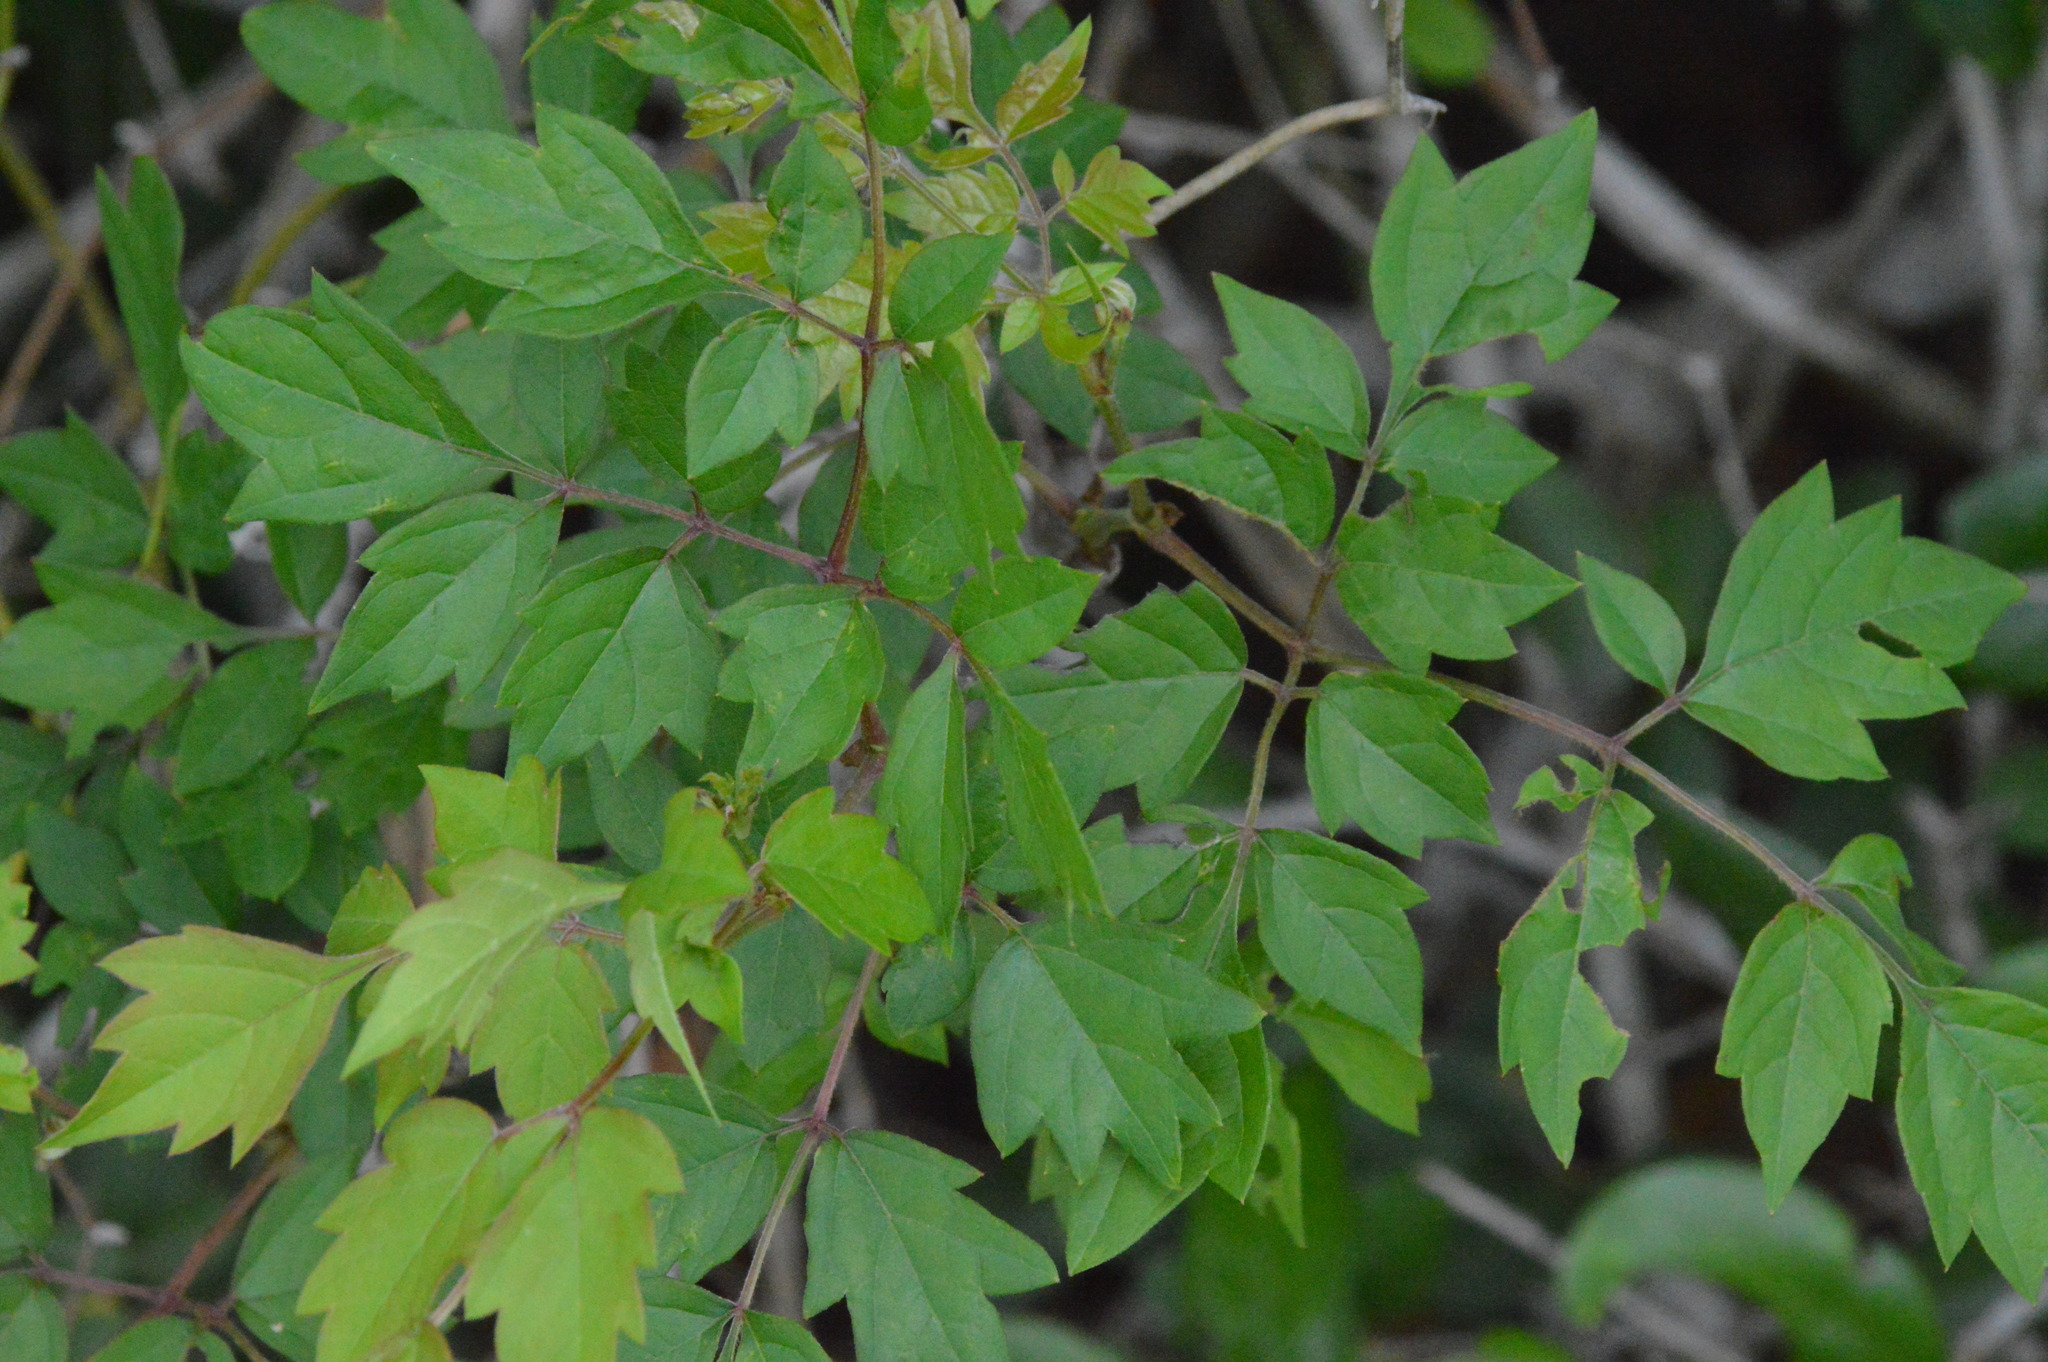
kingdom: Plantae
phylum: Tracheophyta
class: Magnoliopsida
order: Vitales
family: Vitaceae
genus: Nekemias
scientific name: Nekemias arborea
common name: Peppervine
